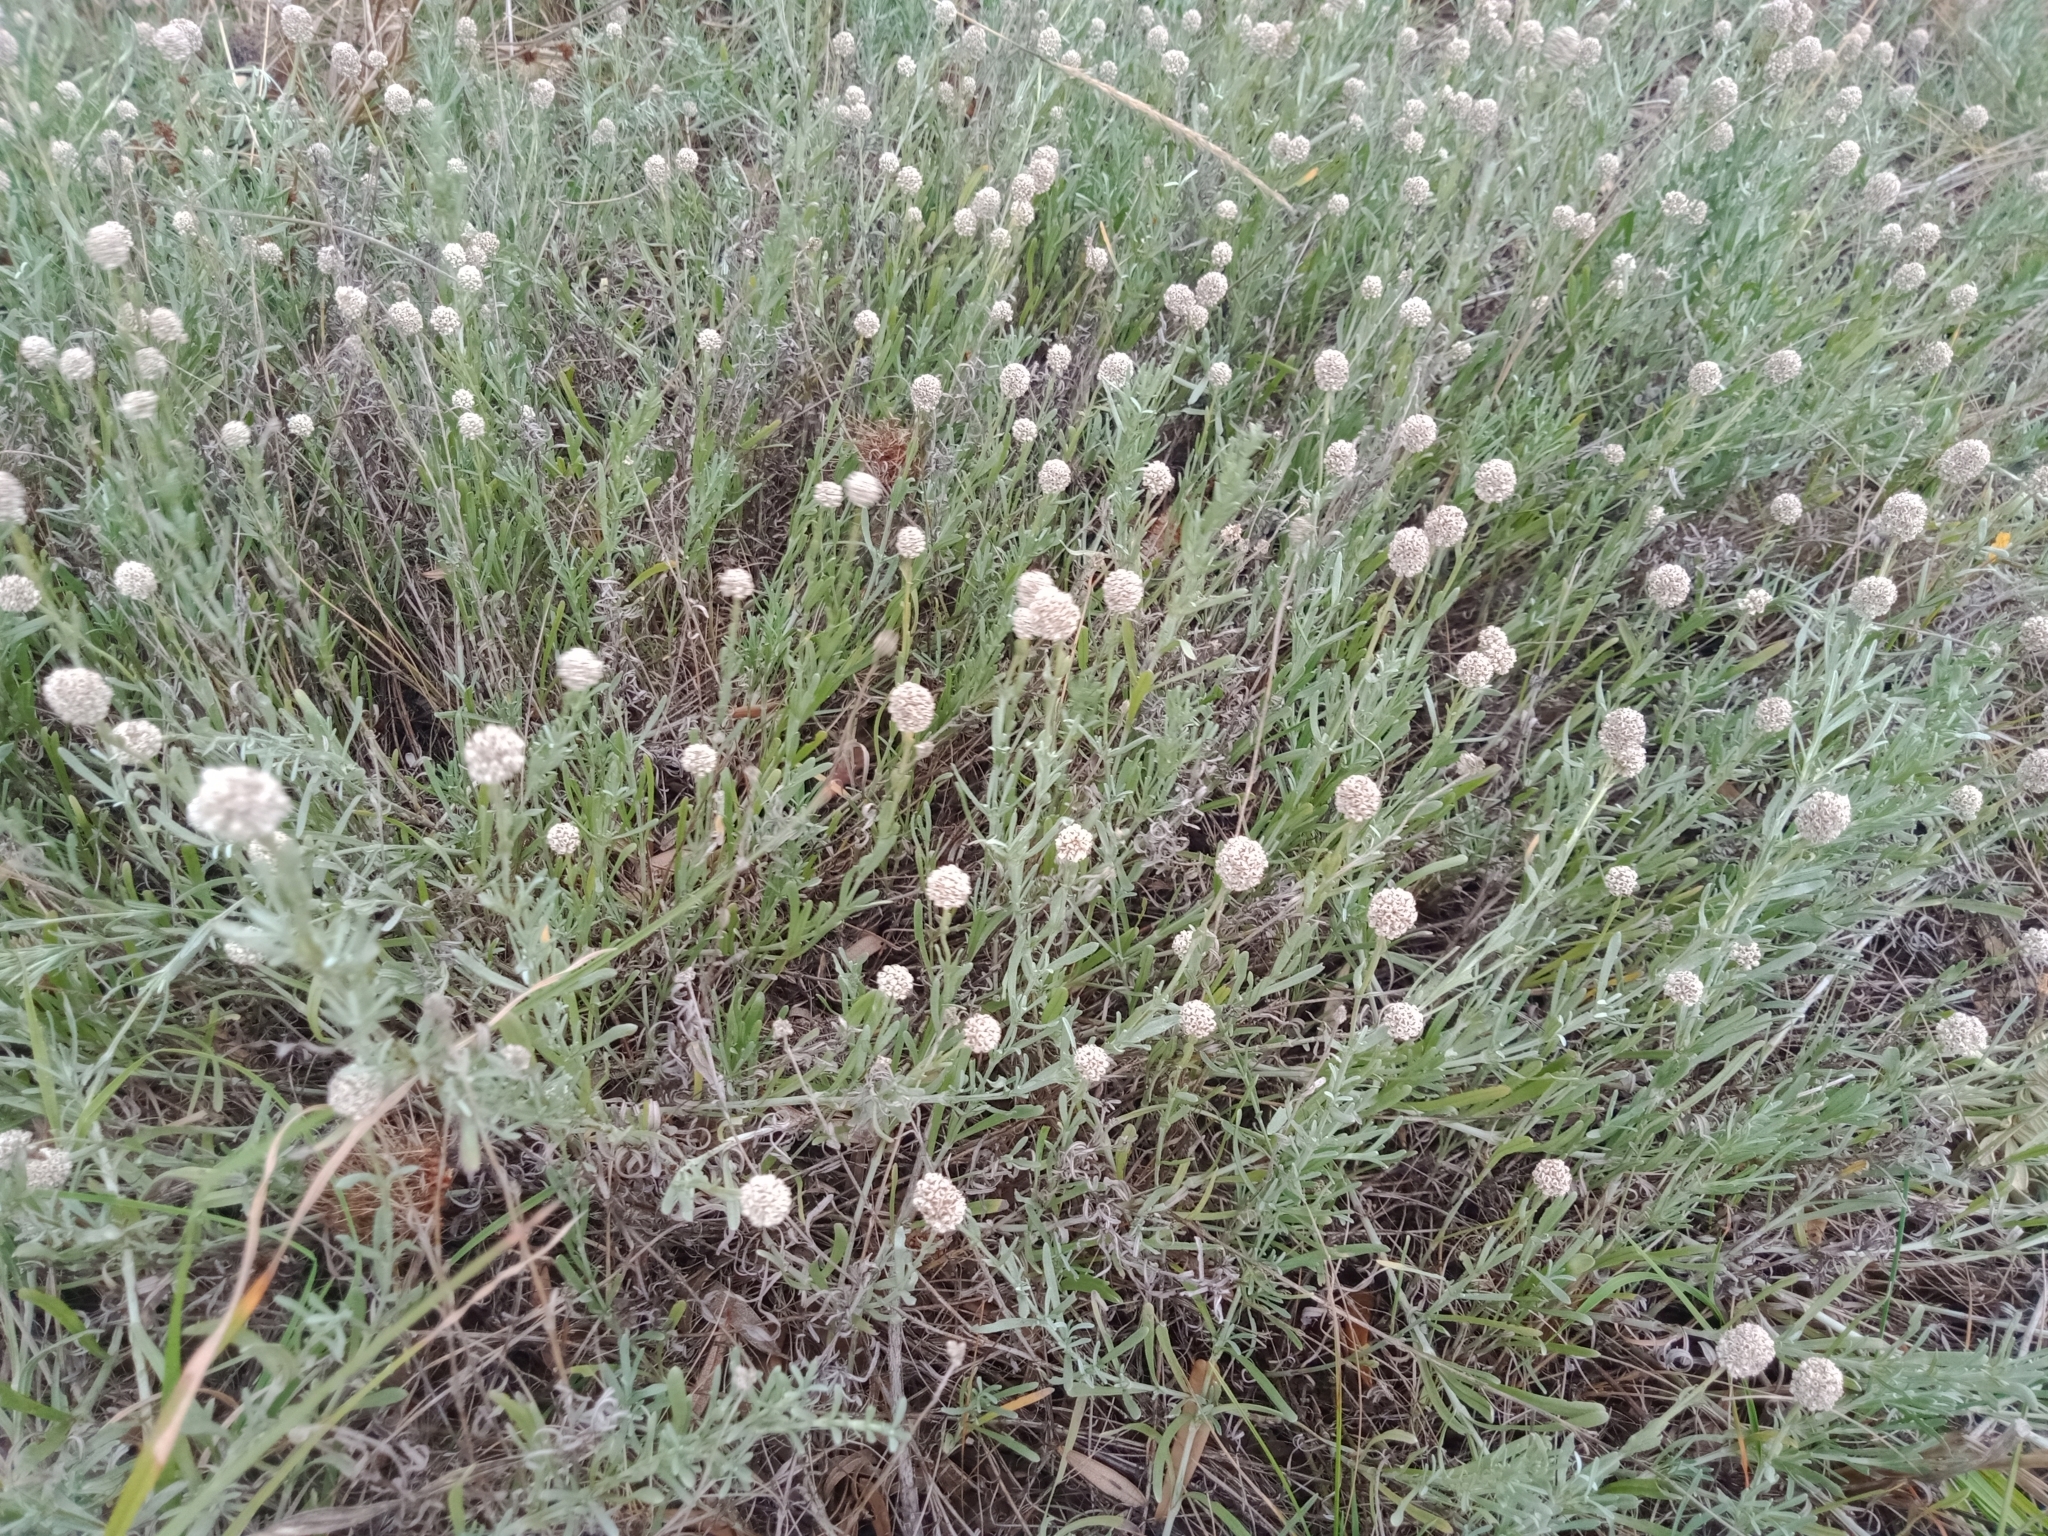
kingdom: Plantae
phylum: Tracheophyta
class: Magnoliopsida
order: Asterales
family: Asteraceae
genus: Calocephalus
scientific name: Calocephalus lacteus
